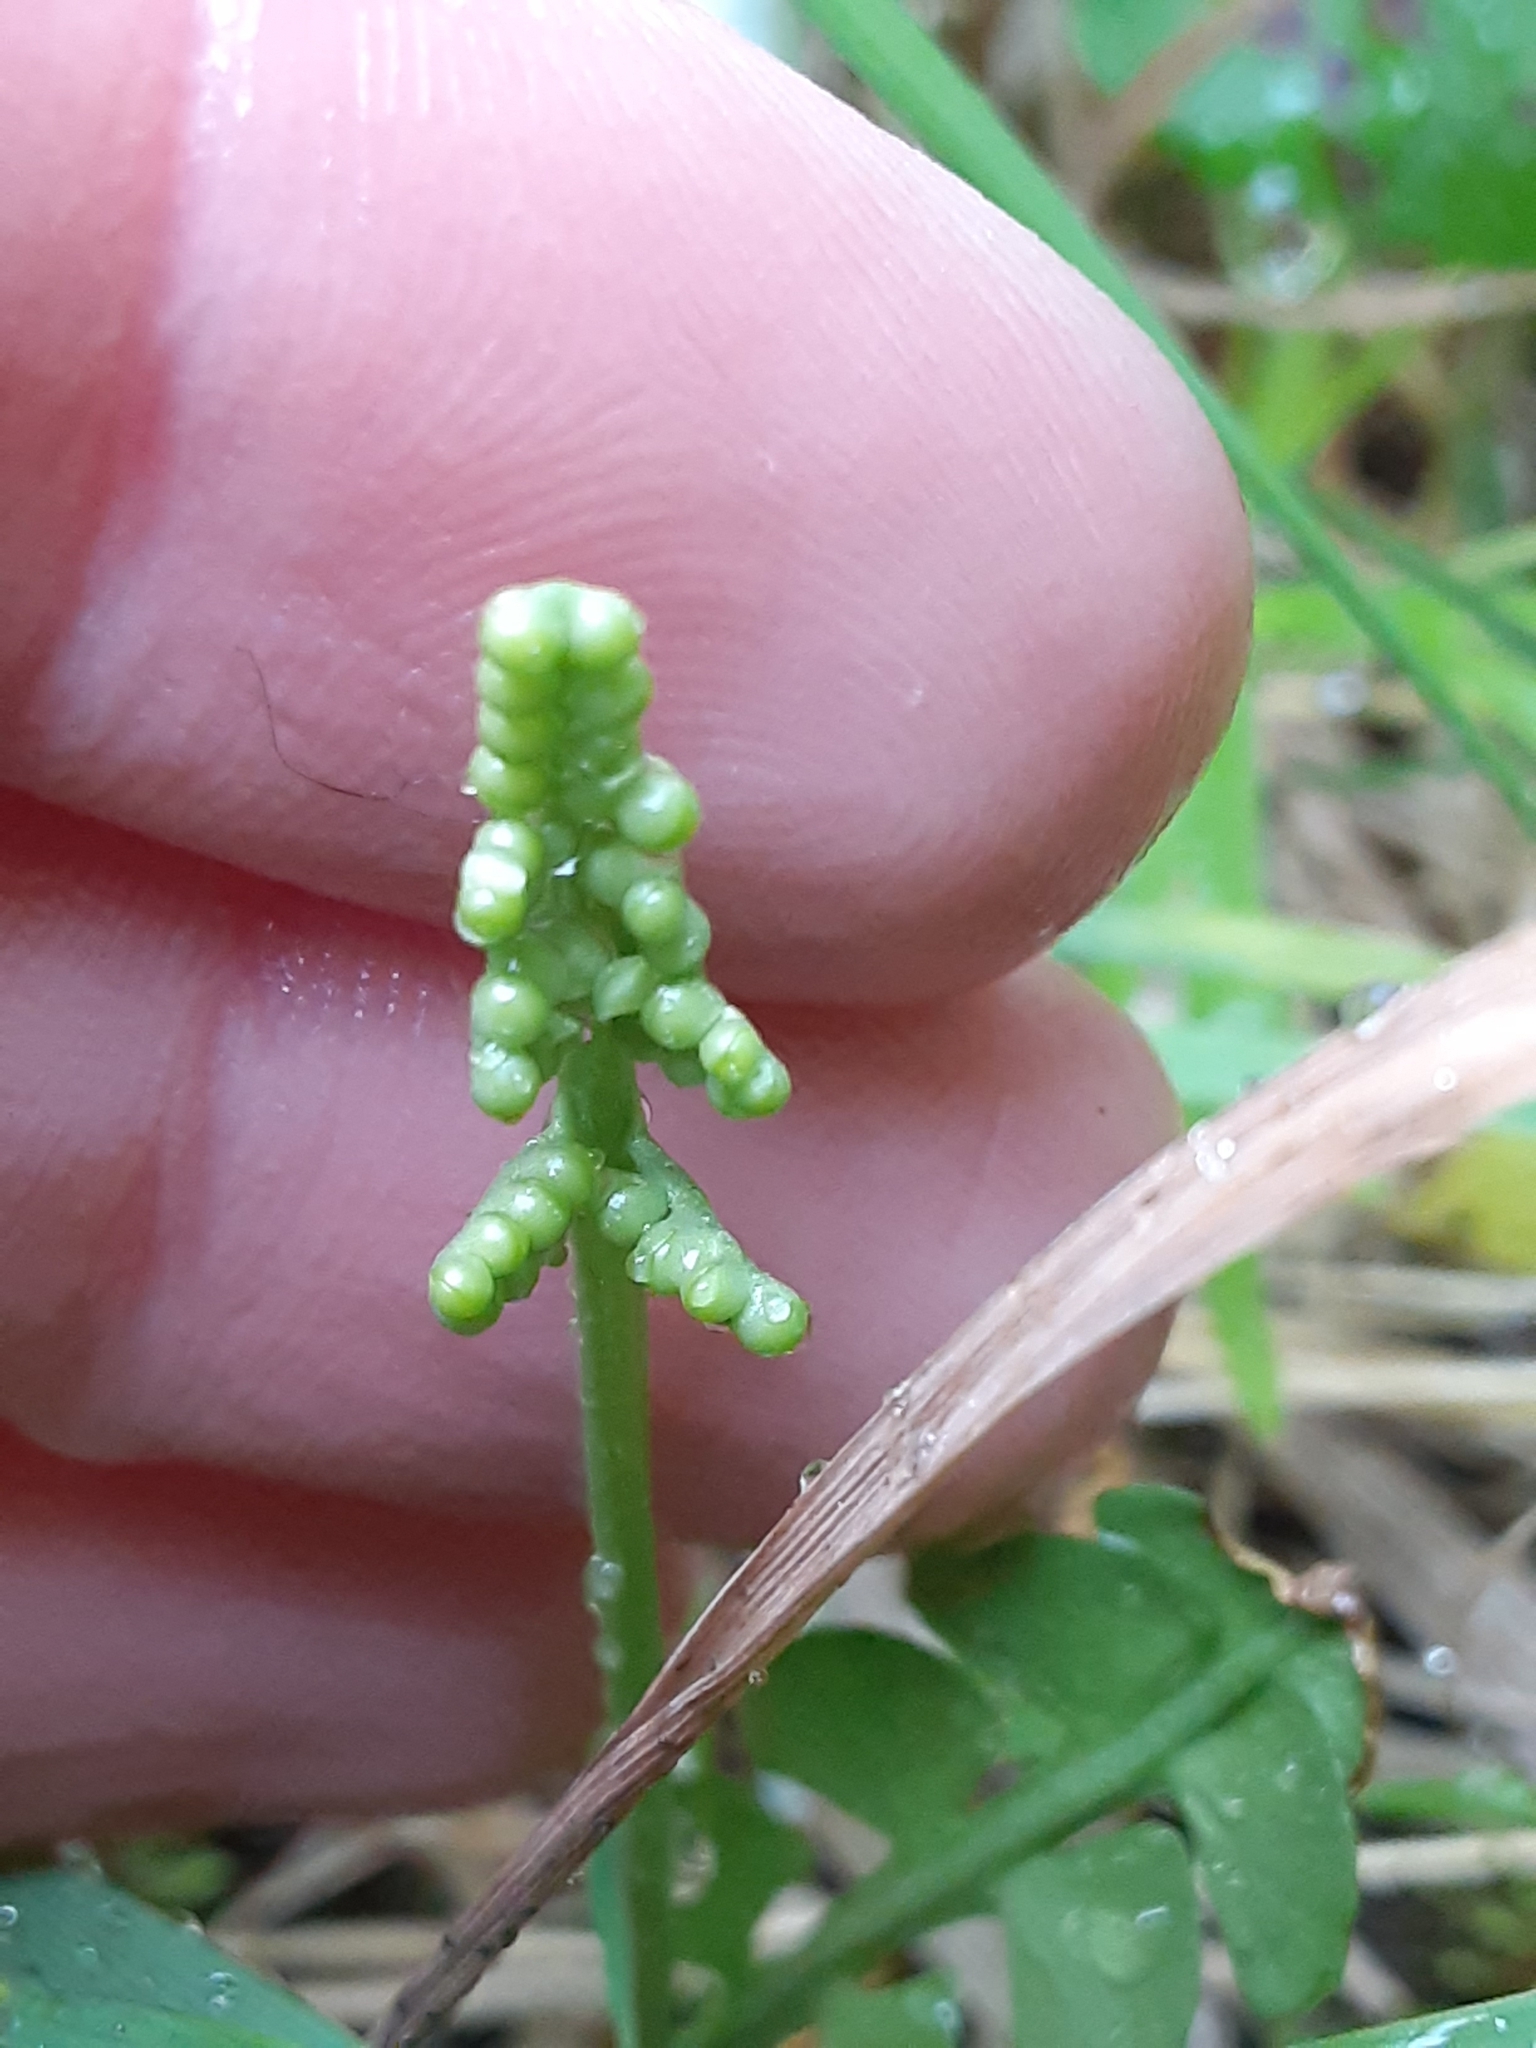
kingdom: Plantae
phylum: Tracheophyta
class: Polypodiopsida
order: Ophioglossales
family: Ophioglossaceae
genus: Botrychium
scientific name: Botrychium lunaria
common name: Moonwort
